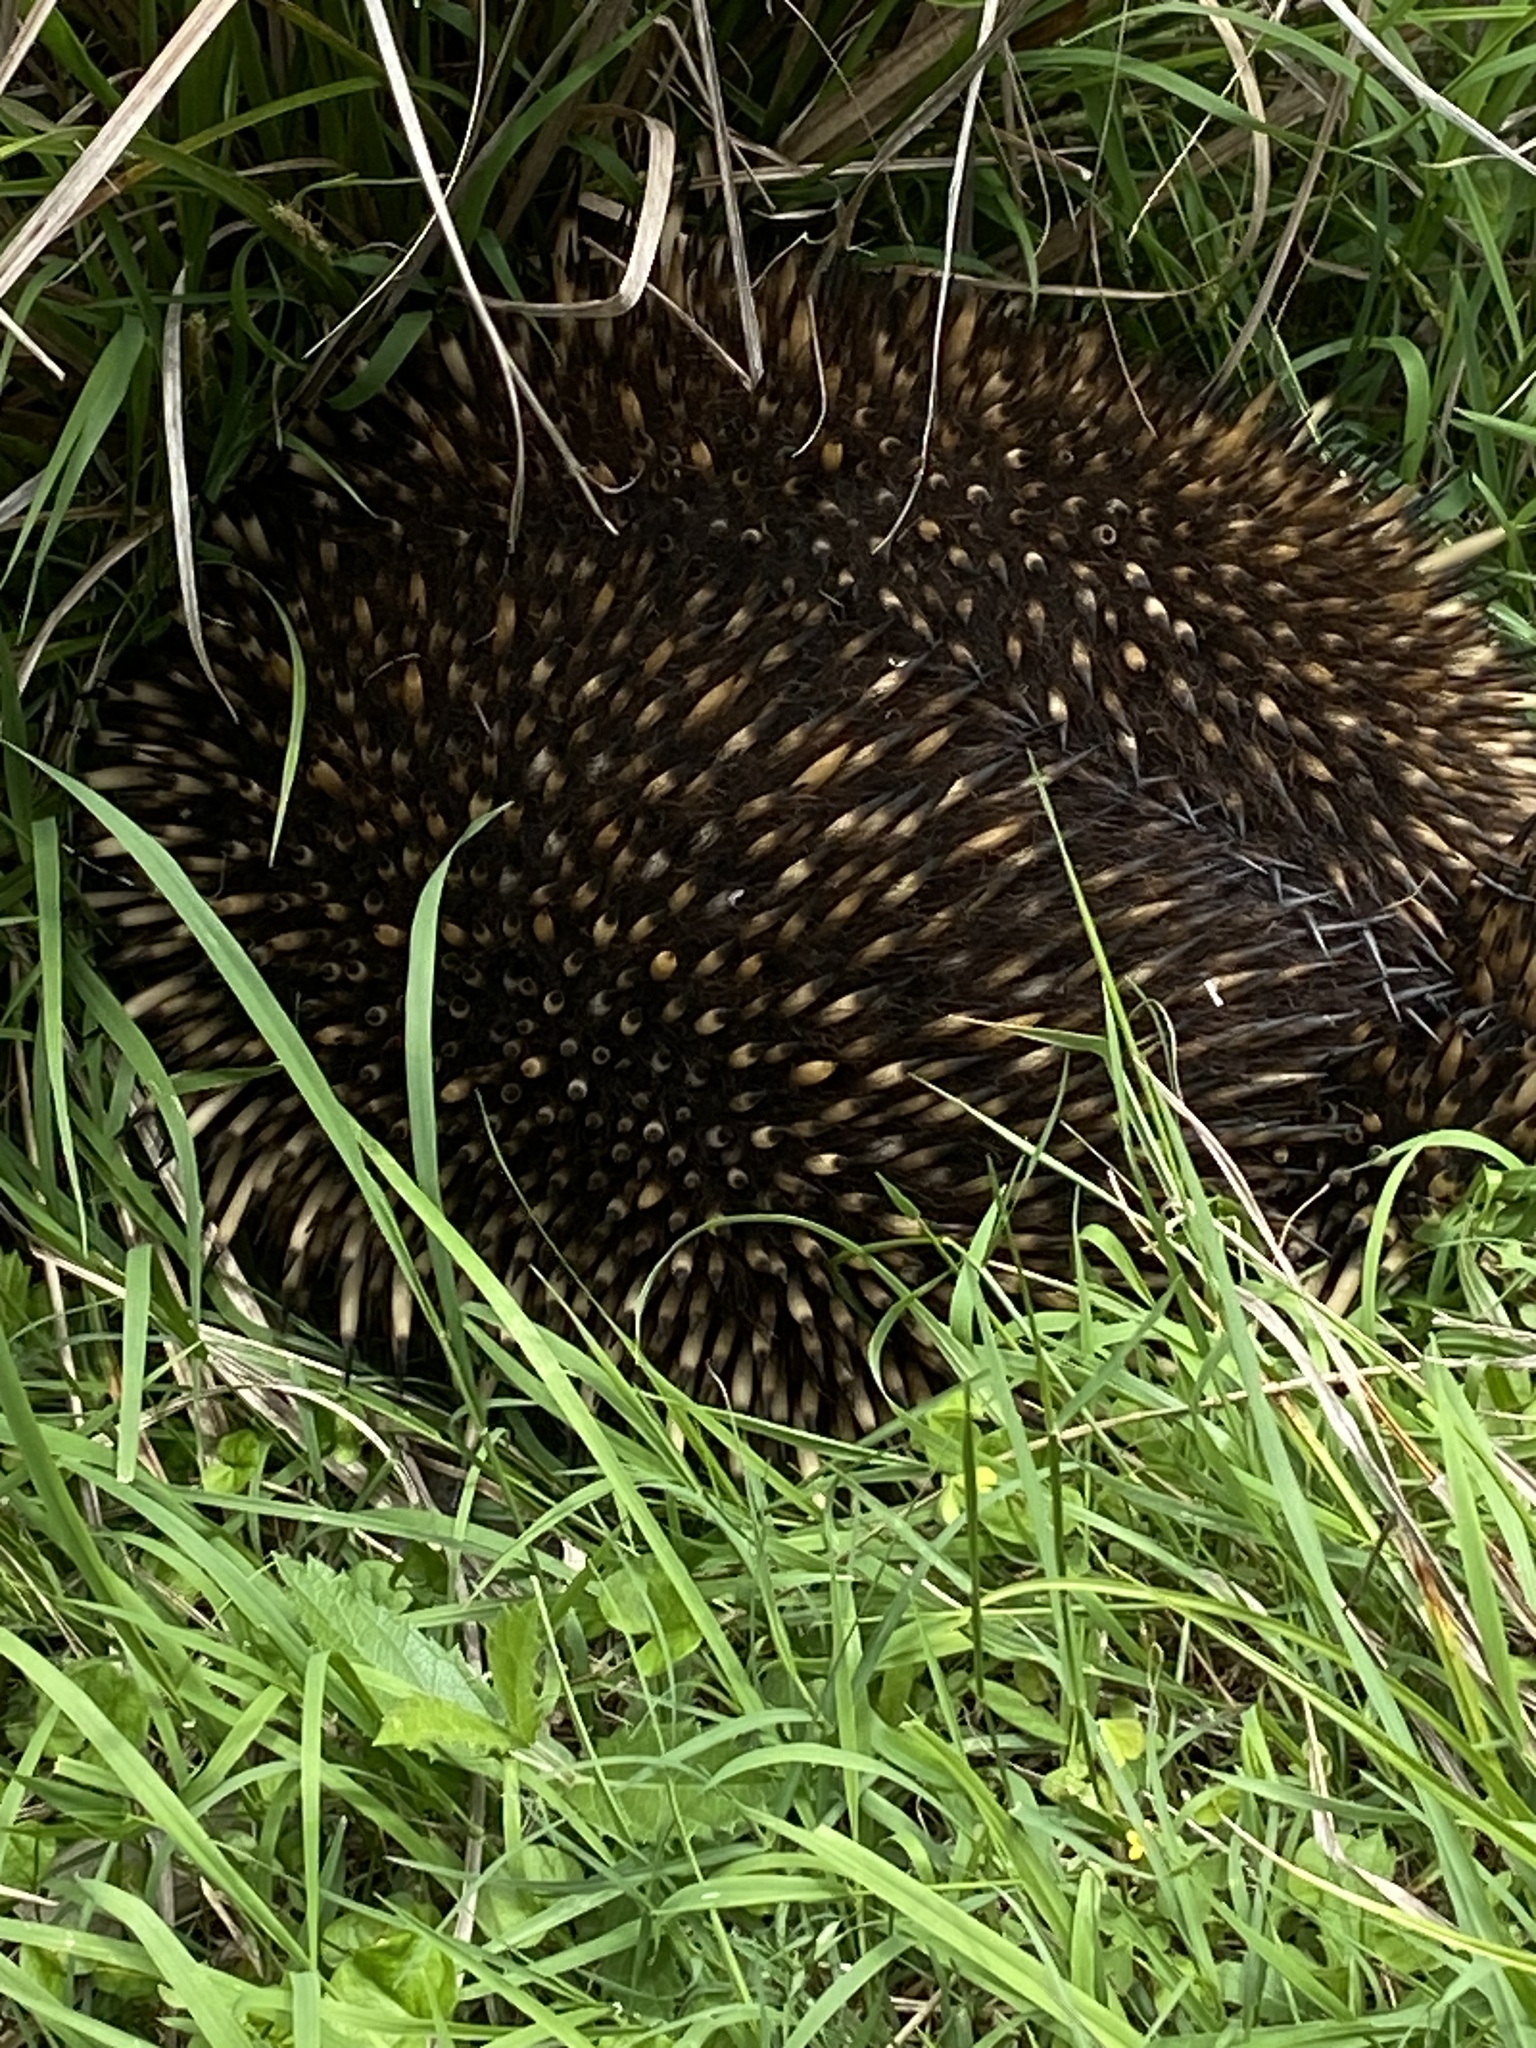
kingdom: Animalia
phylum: Chordata
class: Mammalia
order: Monotremata
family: Tachyglossidae
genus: Tachyglossus
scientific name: Tachyglossus aculeatus
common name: Short-beaked echidna
